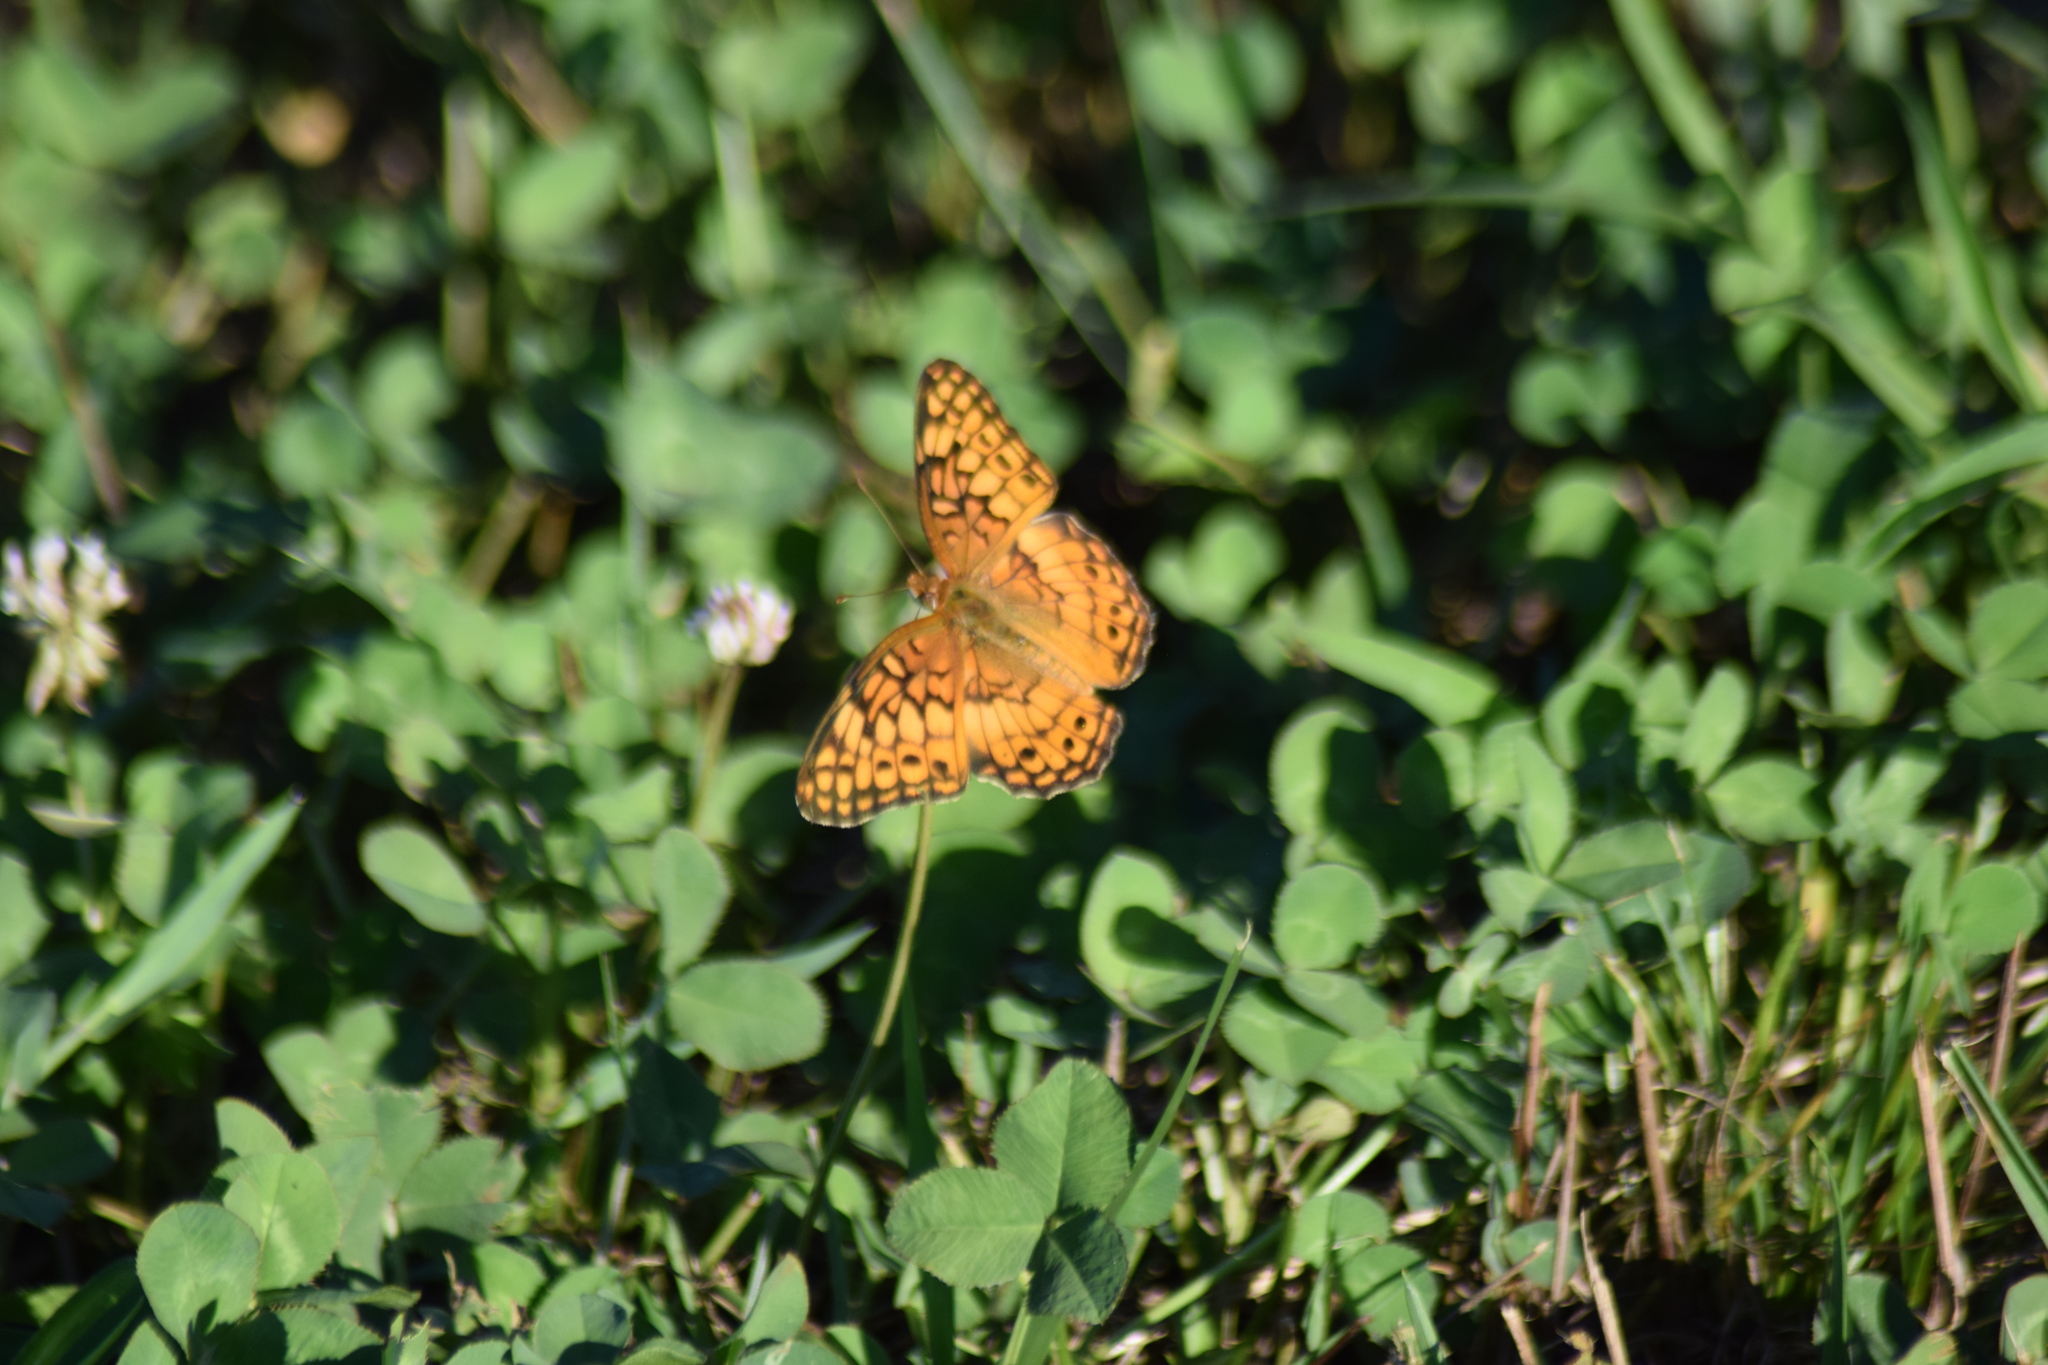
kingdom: Animalia
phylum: Arthropoda
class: Insecta
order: Lepidoptera
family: Nymphalidae
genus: Euptoieta
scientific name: Euptoieta claudia
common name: Variegated fritillary
